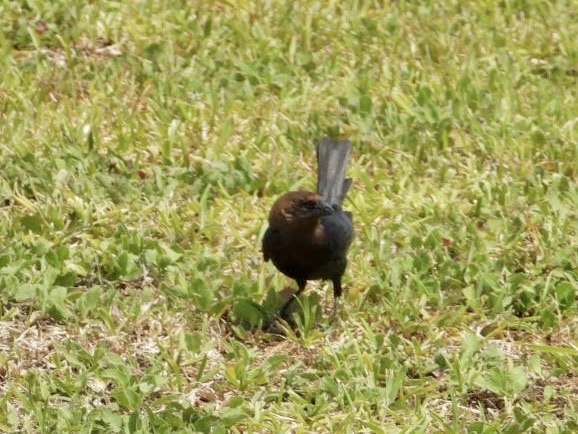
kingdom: Animalia
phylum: Chordata
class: Aves
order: Passeriformes
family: Icteridae
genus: Molothrus
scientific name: Molothrus ater
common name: Brown-headed cowbird
